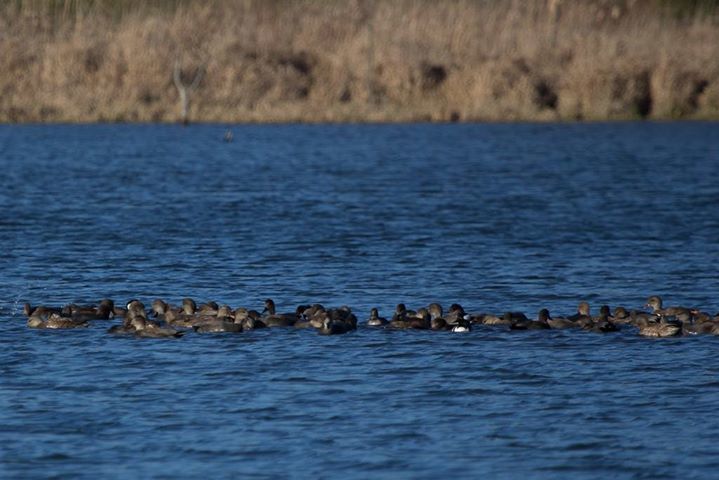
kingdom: Animalia
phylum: Chordata
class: Aves
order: Anseriformes
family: Anatidae
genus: Mareca
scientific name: Mareca strepera
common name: Gadwall
